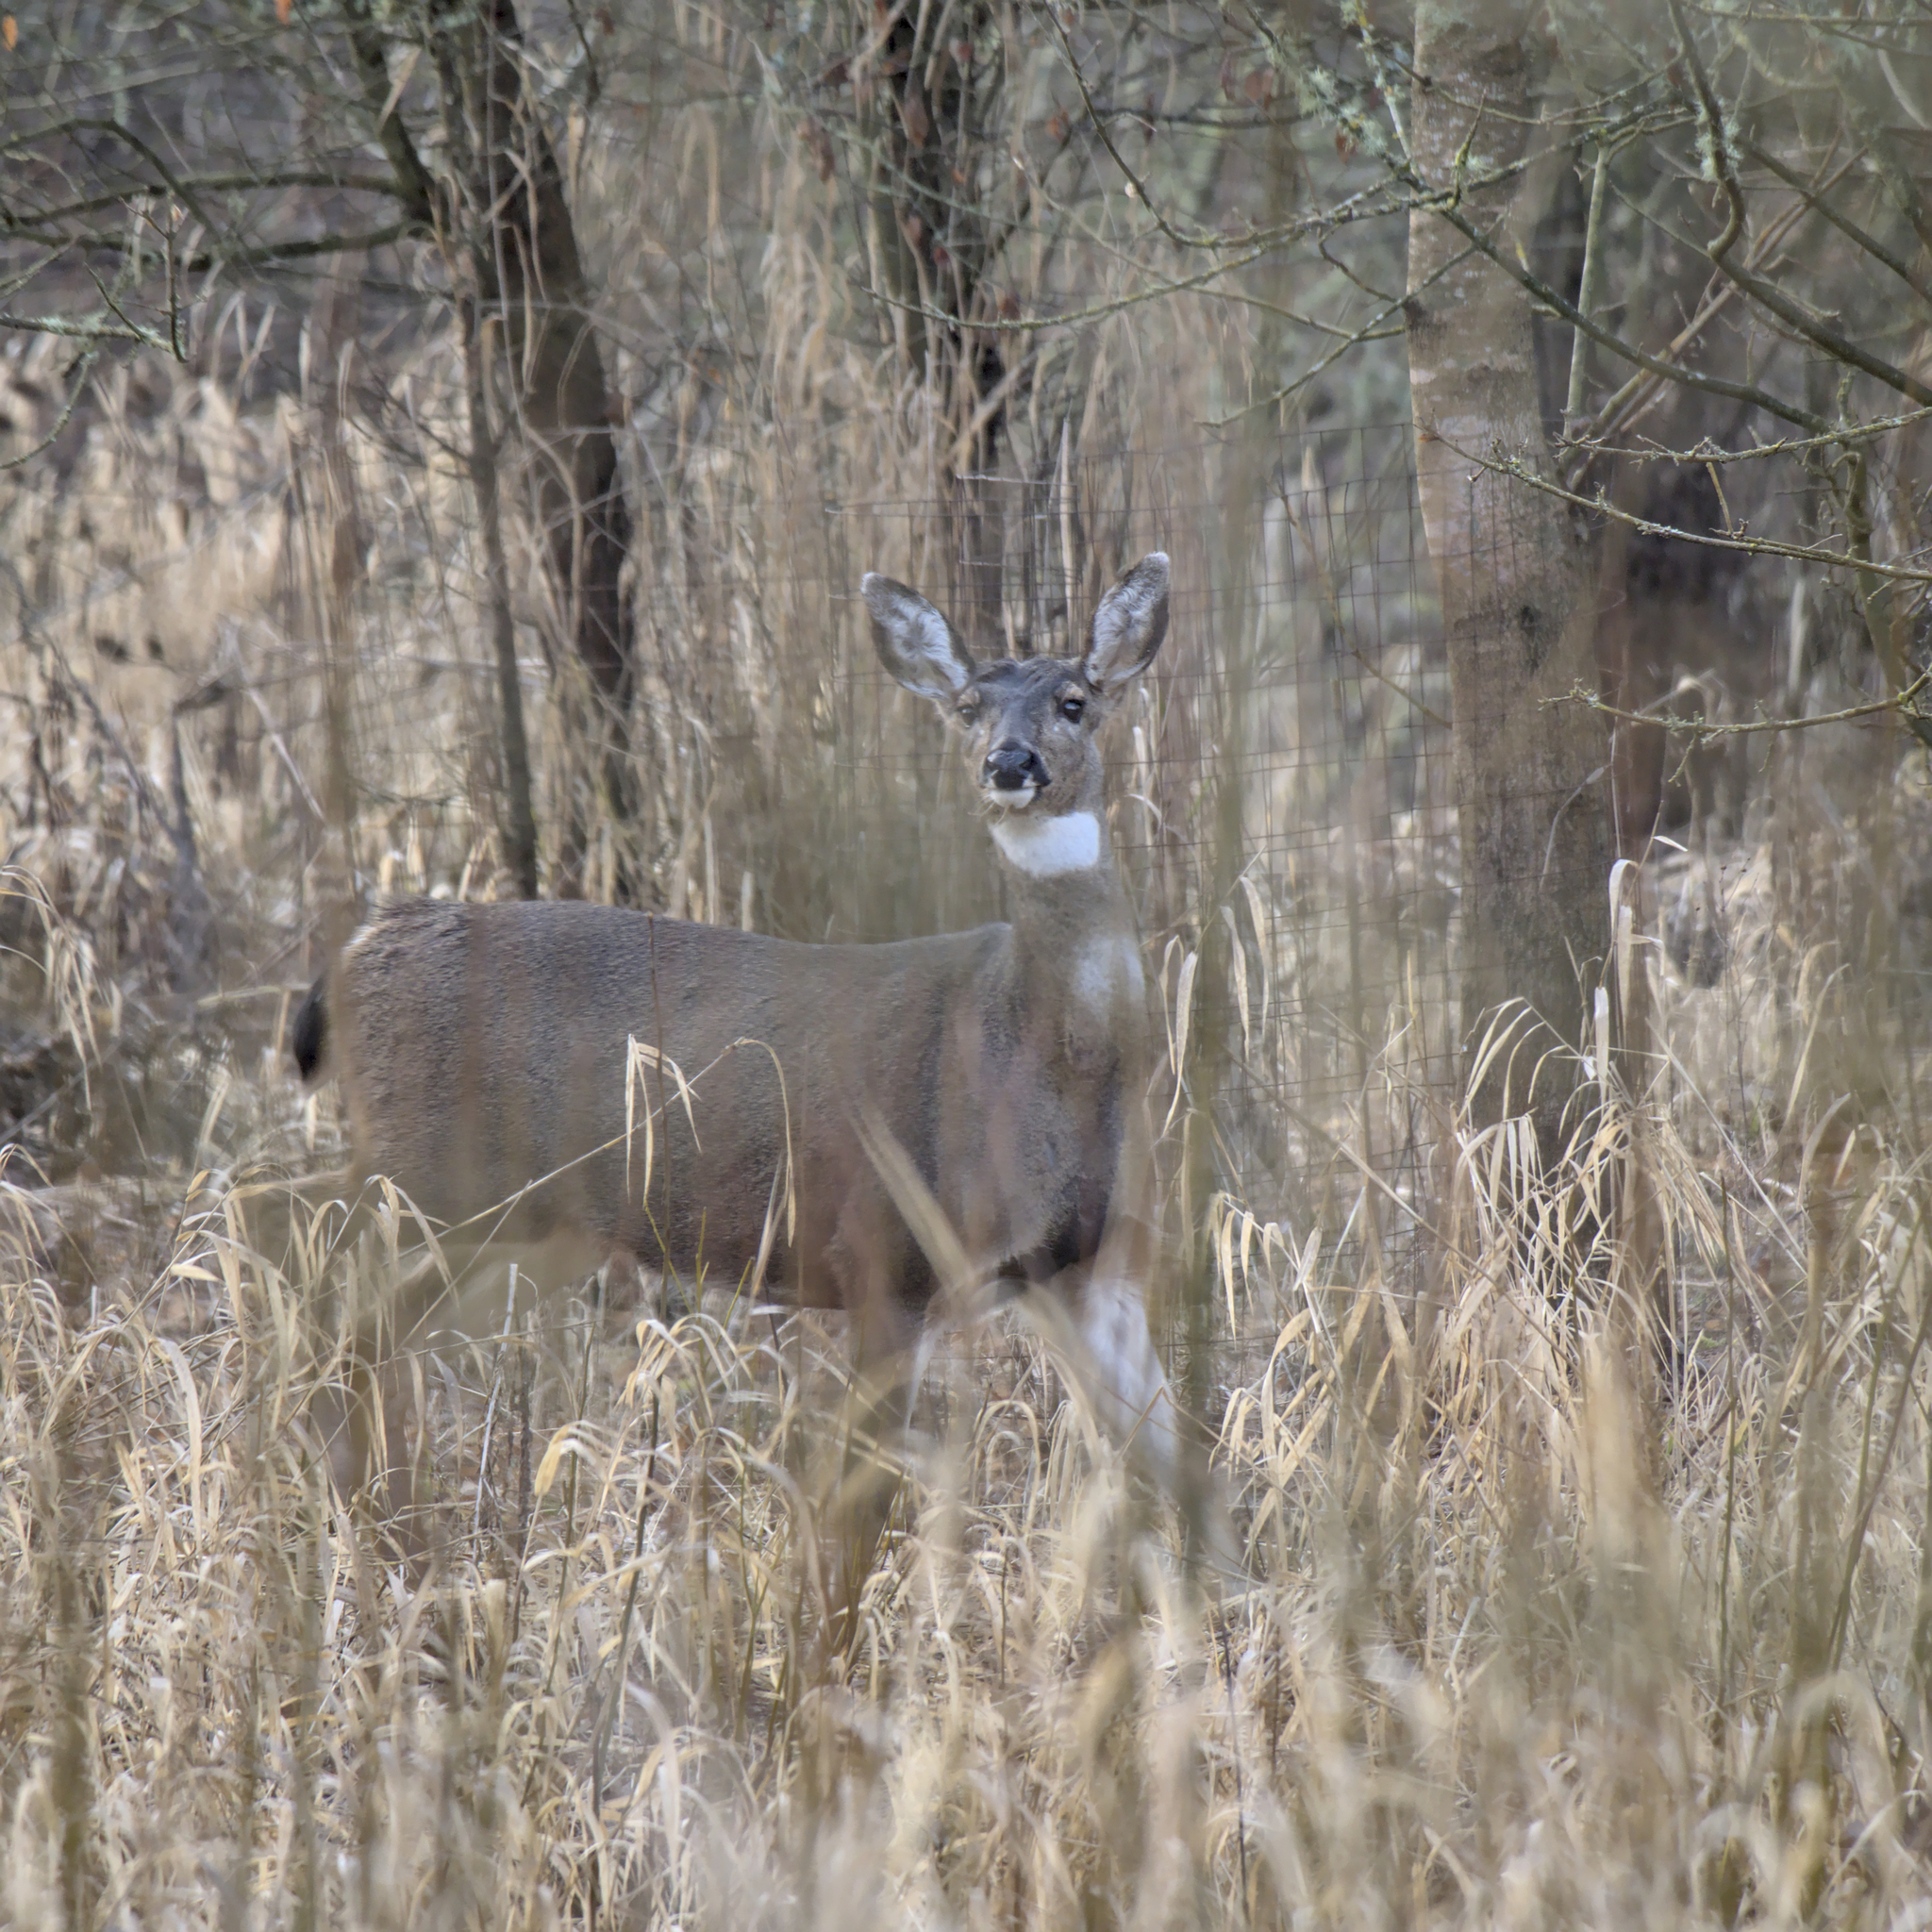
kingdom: Animalia
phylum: Chordata
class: Mammalia
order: Artiodactyla
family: Cervidae
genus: Odocoileus
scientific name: Odocoileus hemionus
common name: Mule deer
